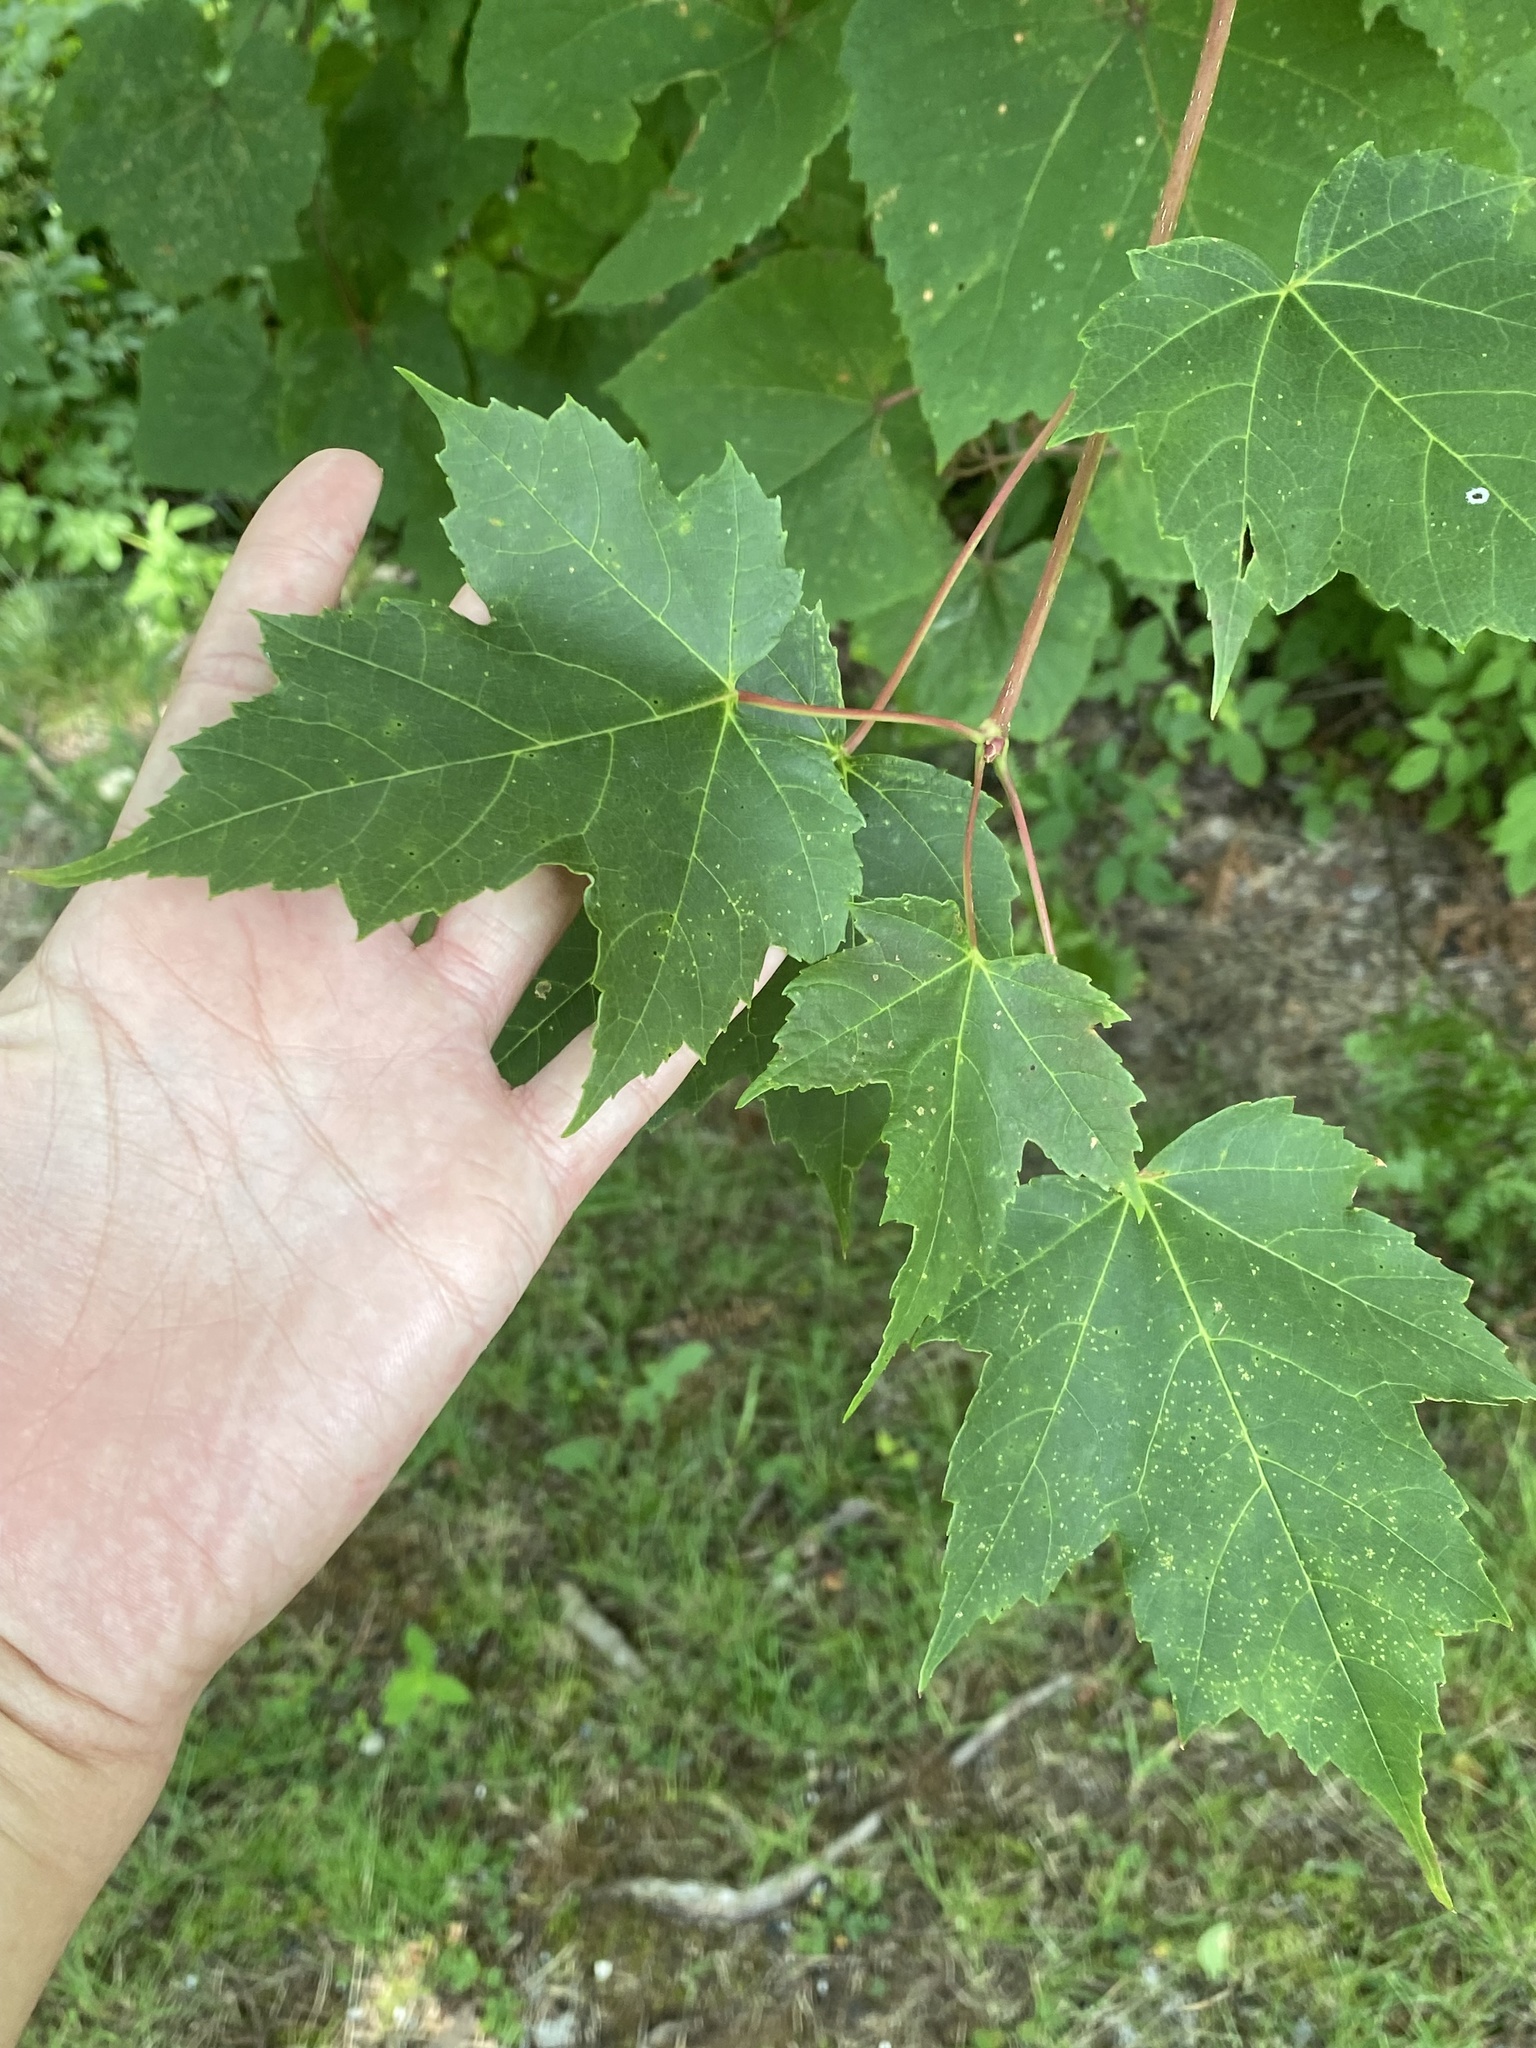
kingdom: Plantae
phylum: Tracheophyta
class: Magnoliopsida
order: Sapindales
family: Sapindaceae
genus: Acer
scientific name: Acer freemanii
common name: Freeman maple
